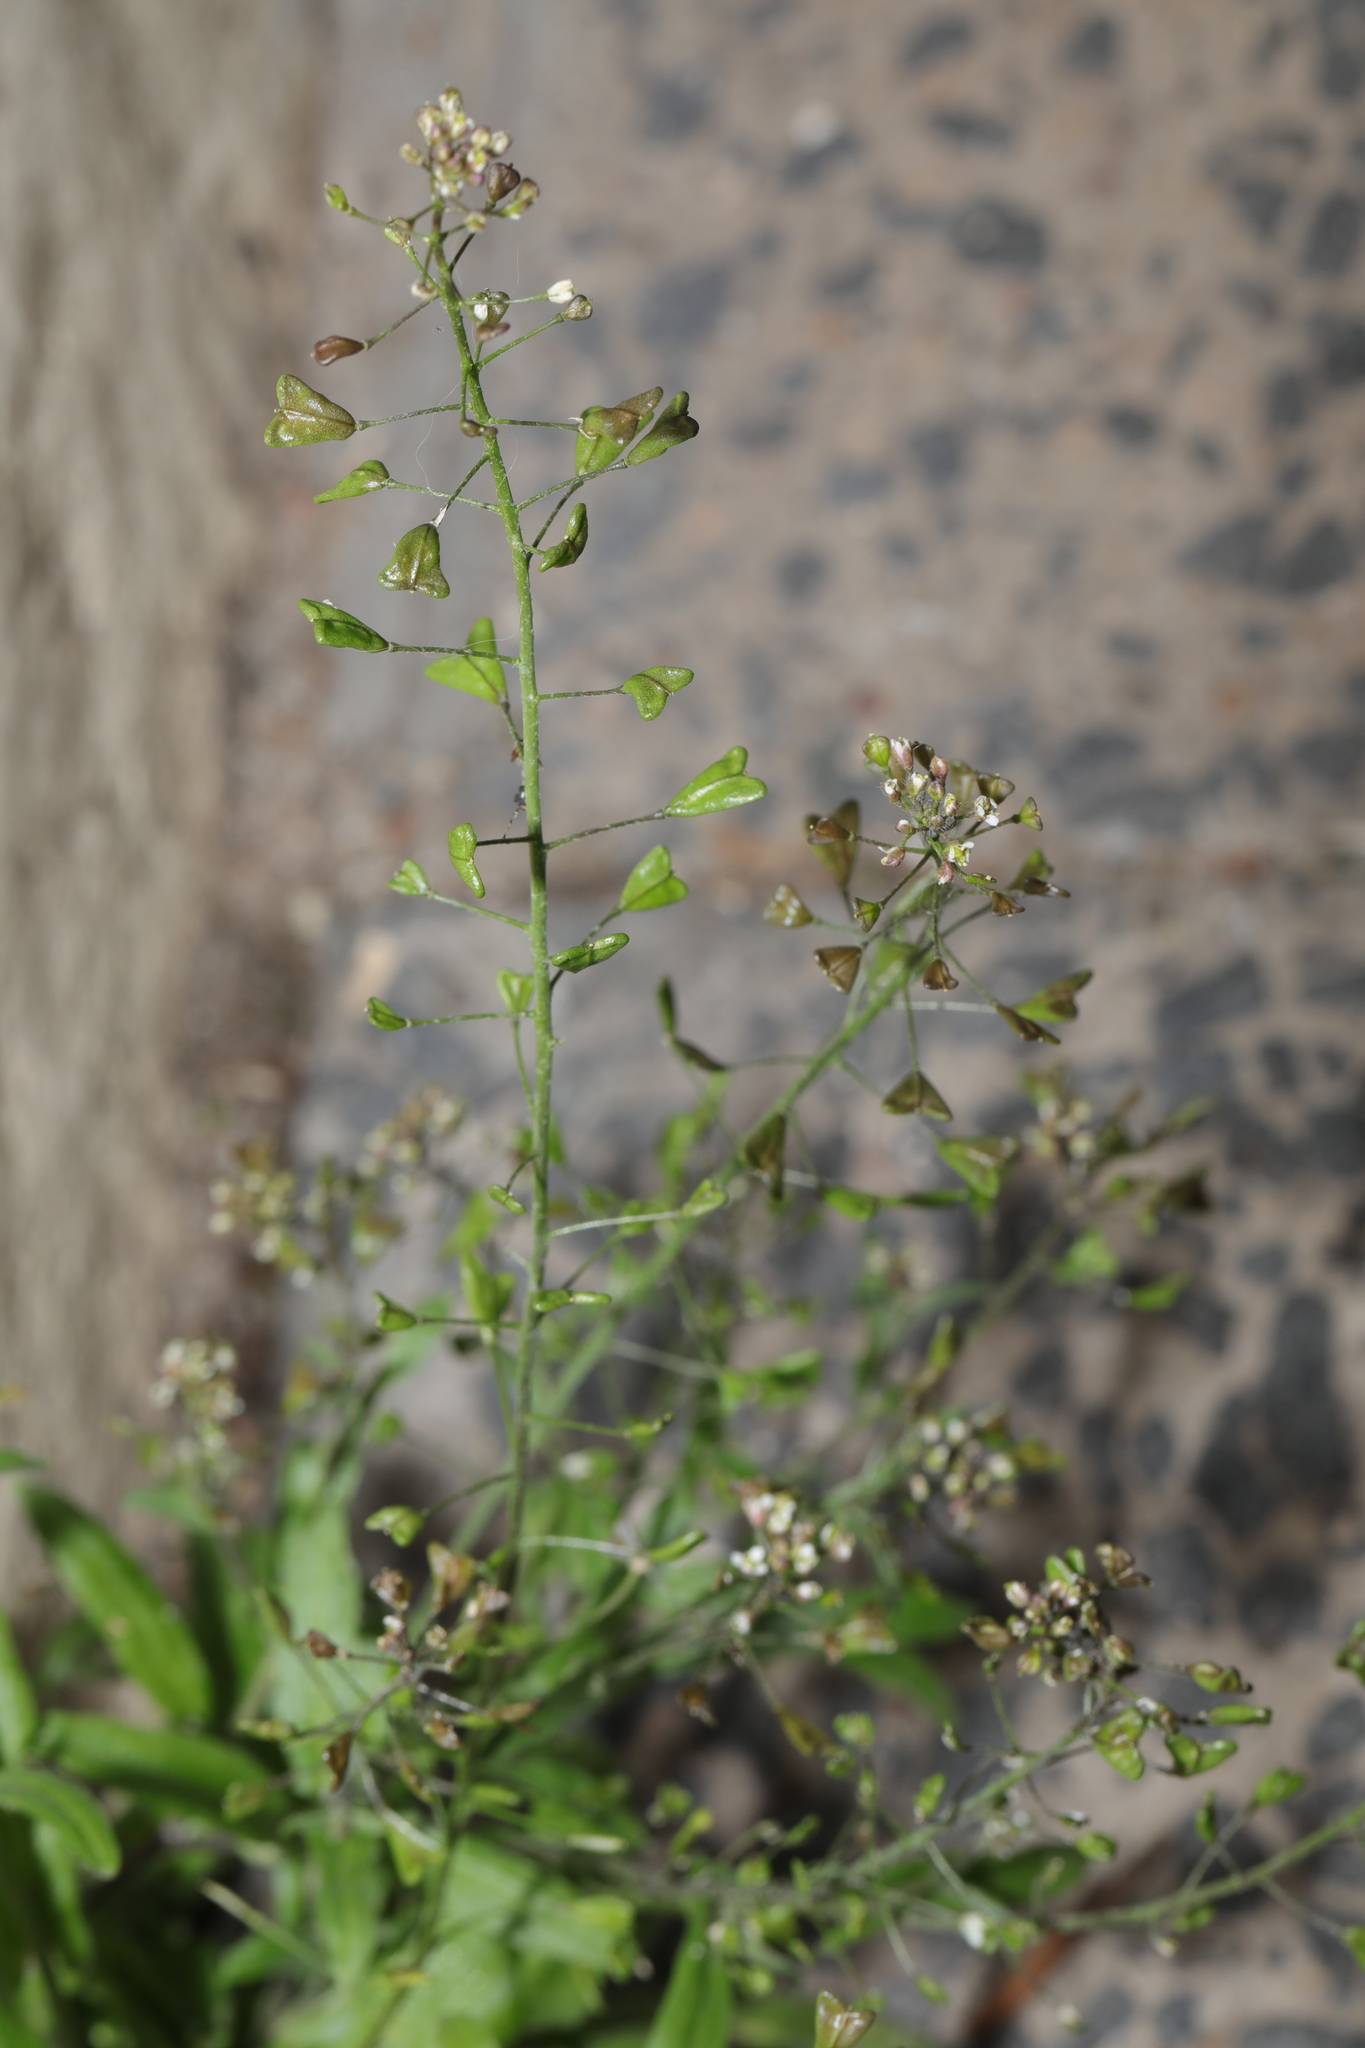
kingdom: Plantae
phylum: Tracheophyta
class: Magnoliopsida
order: Brassicales
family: Brassicaceae
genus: Capsella
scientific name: Capsella bursa-pastoris
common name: Shepherd's purse
